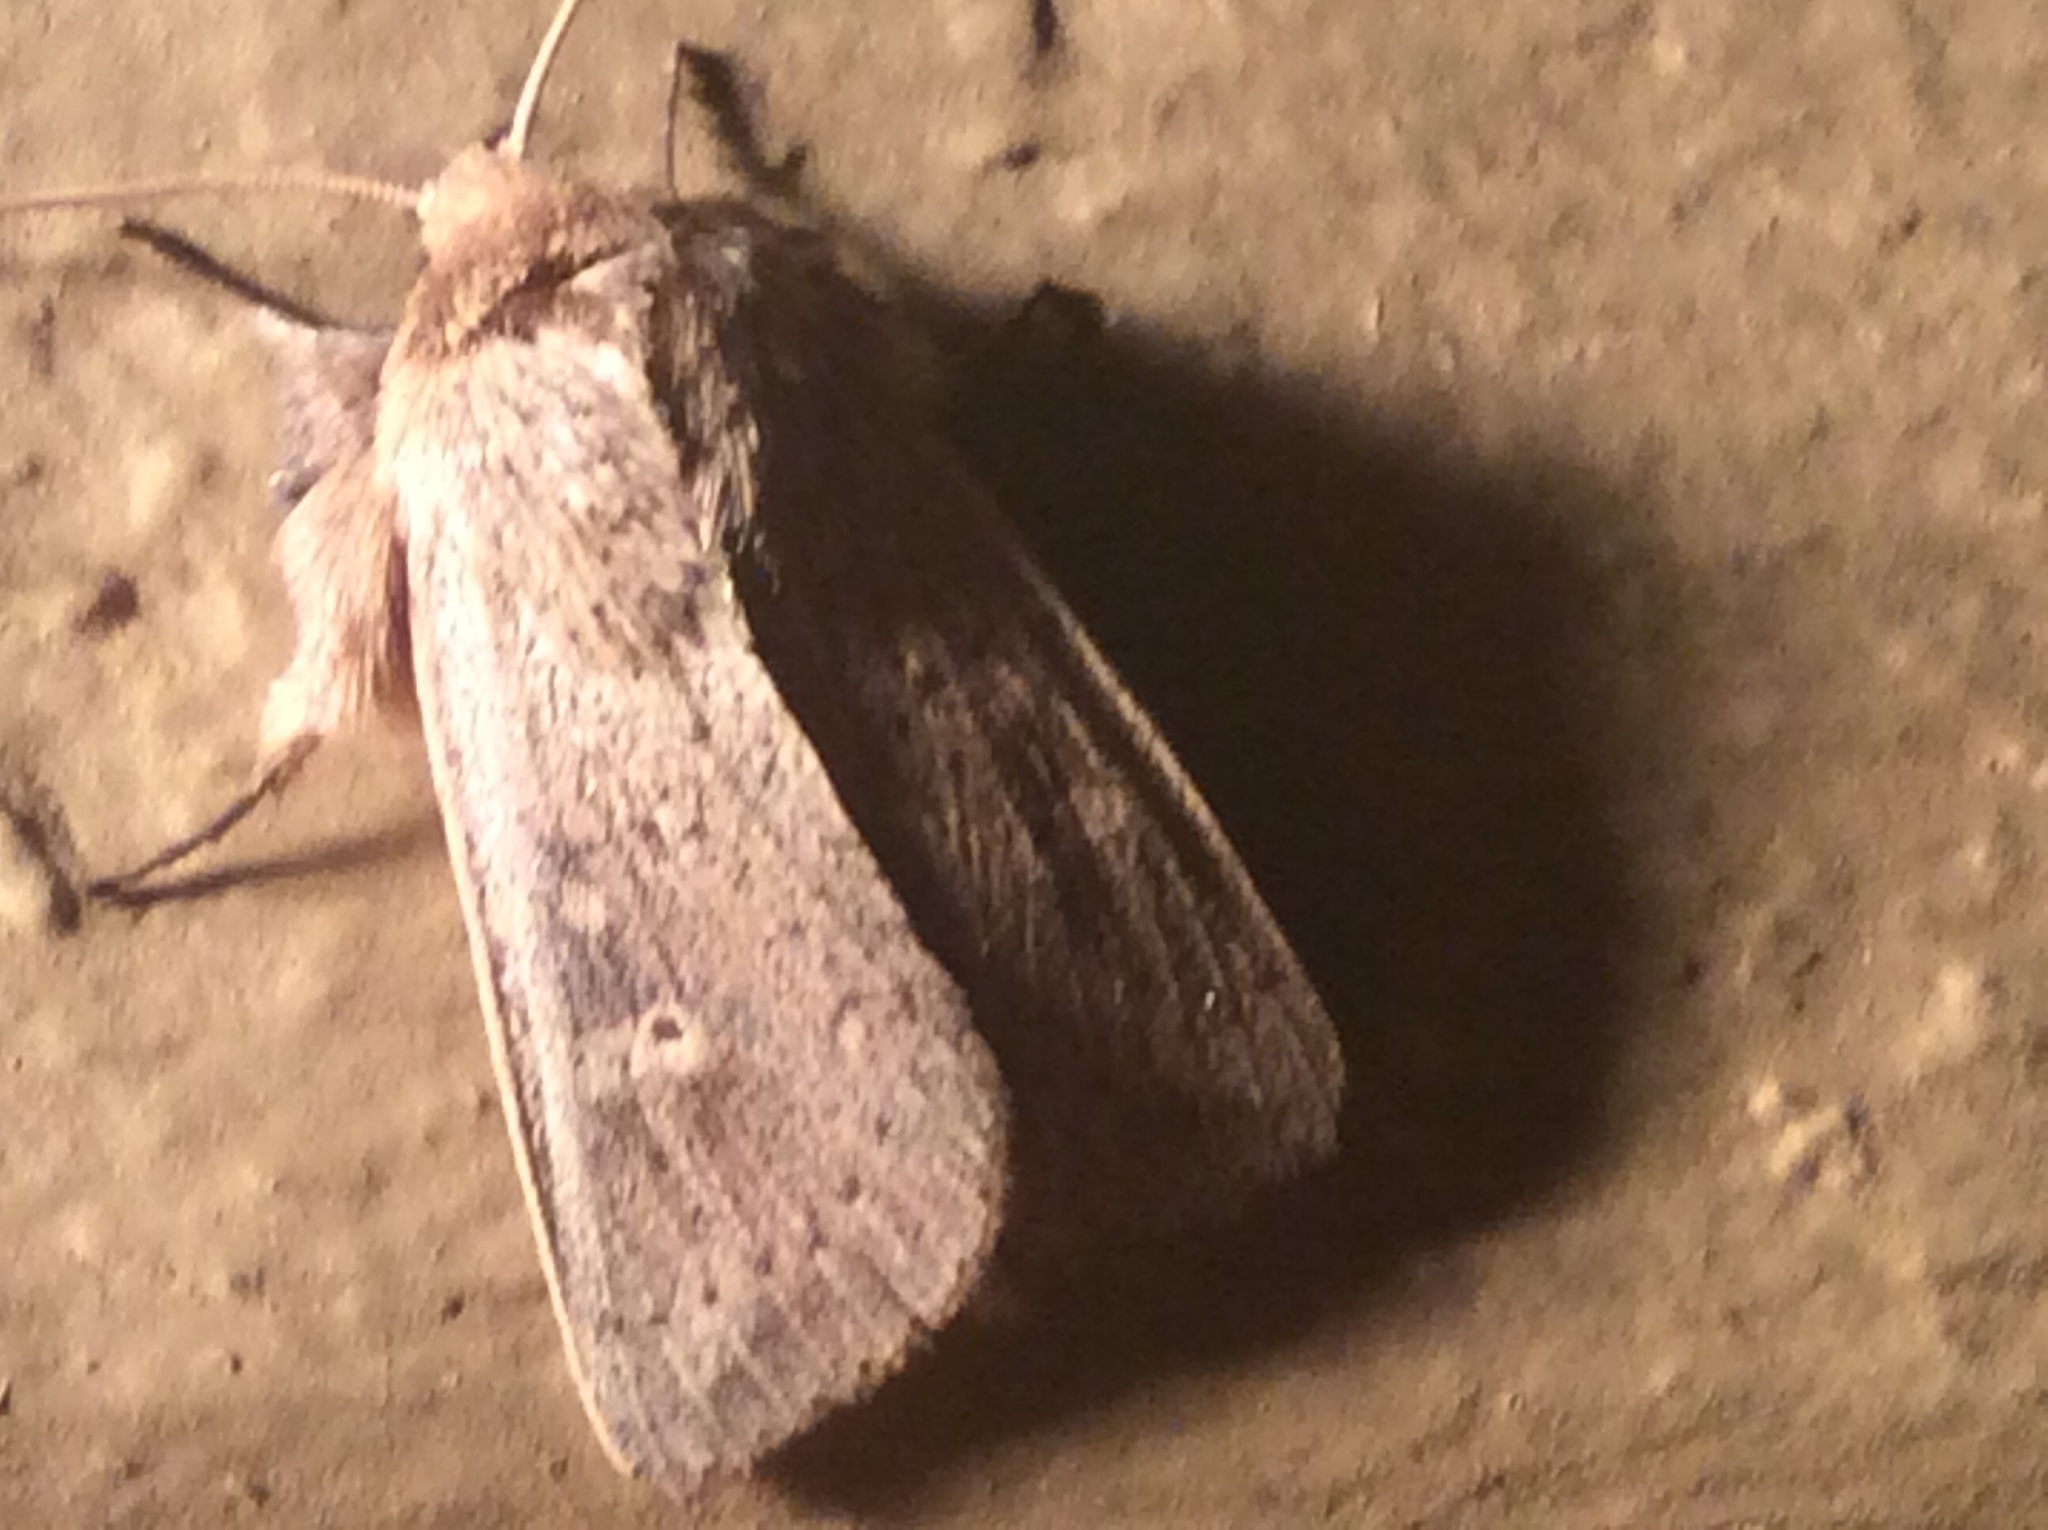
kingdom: Animalia
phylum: Arthropoda
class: Insecta
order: Lepidoptera
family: Noctuidae
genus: Mythimna
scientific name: Mythimna unipuncta
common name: White-speck
